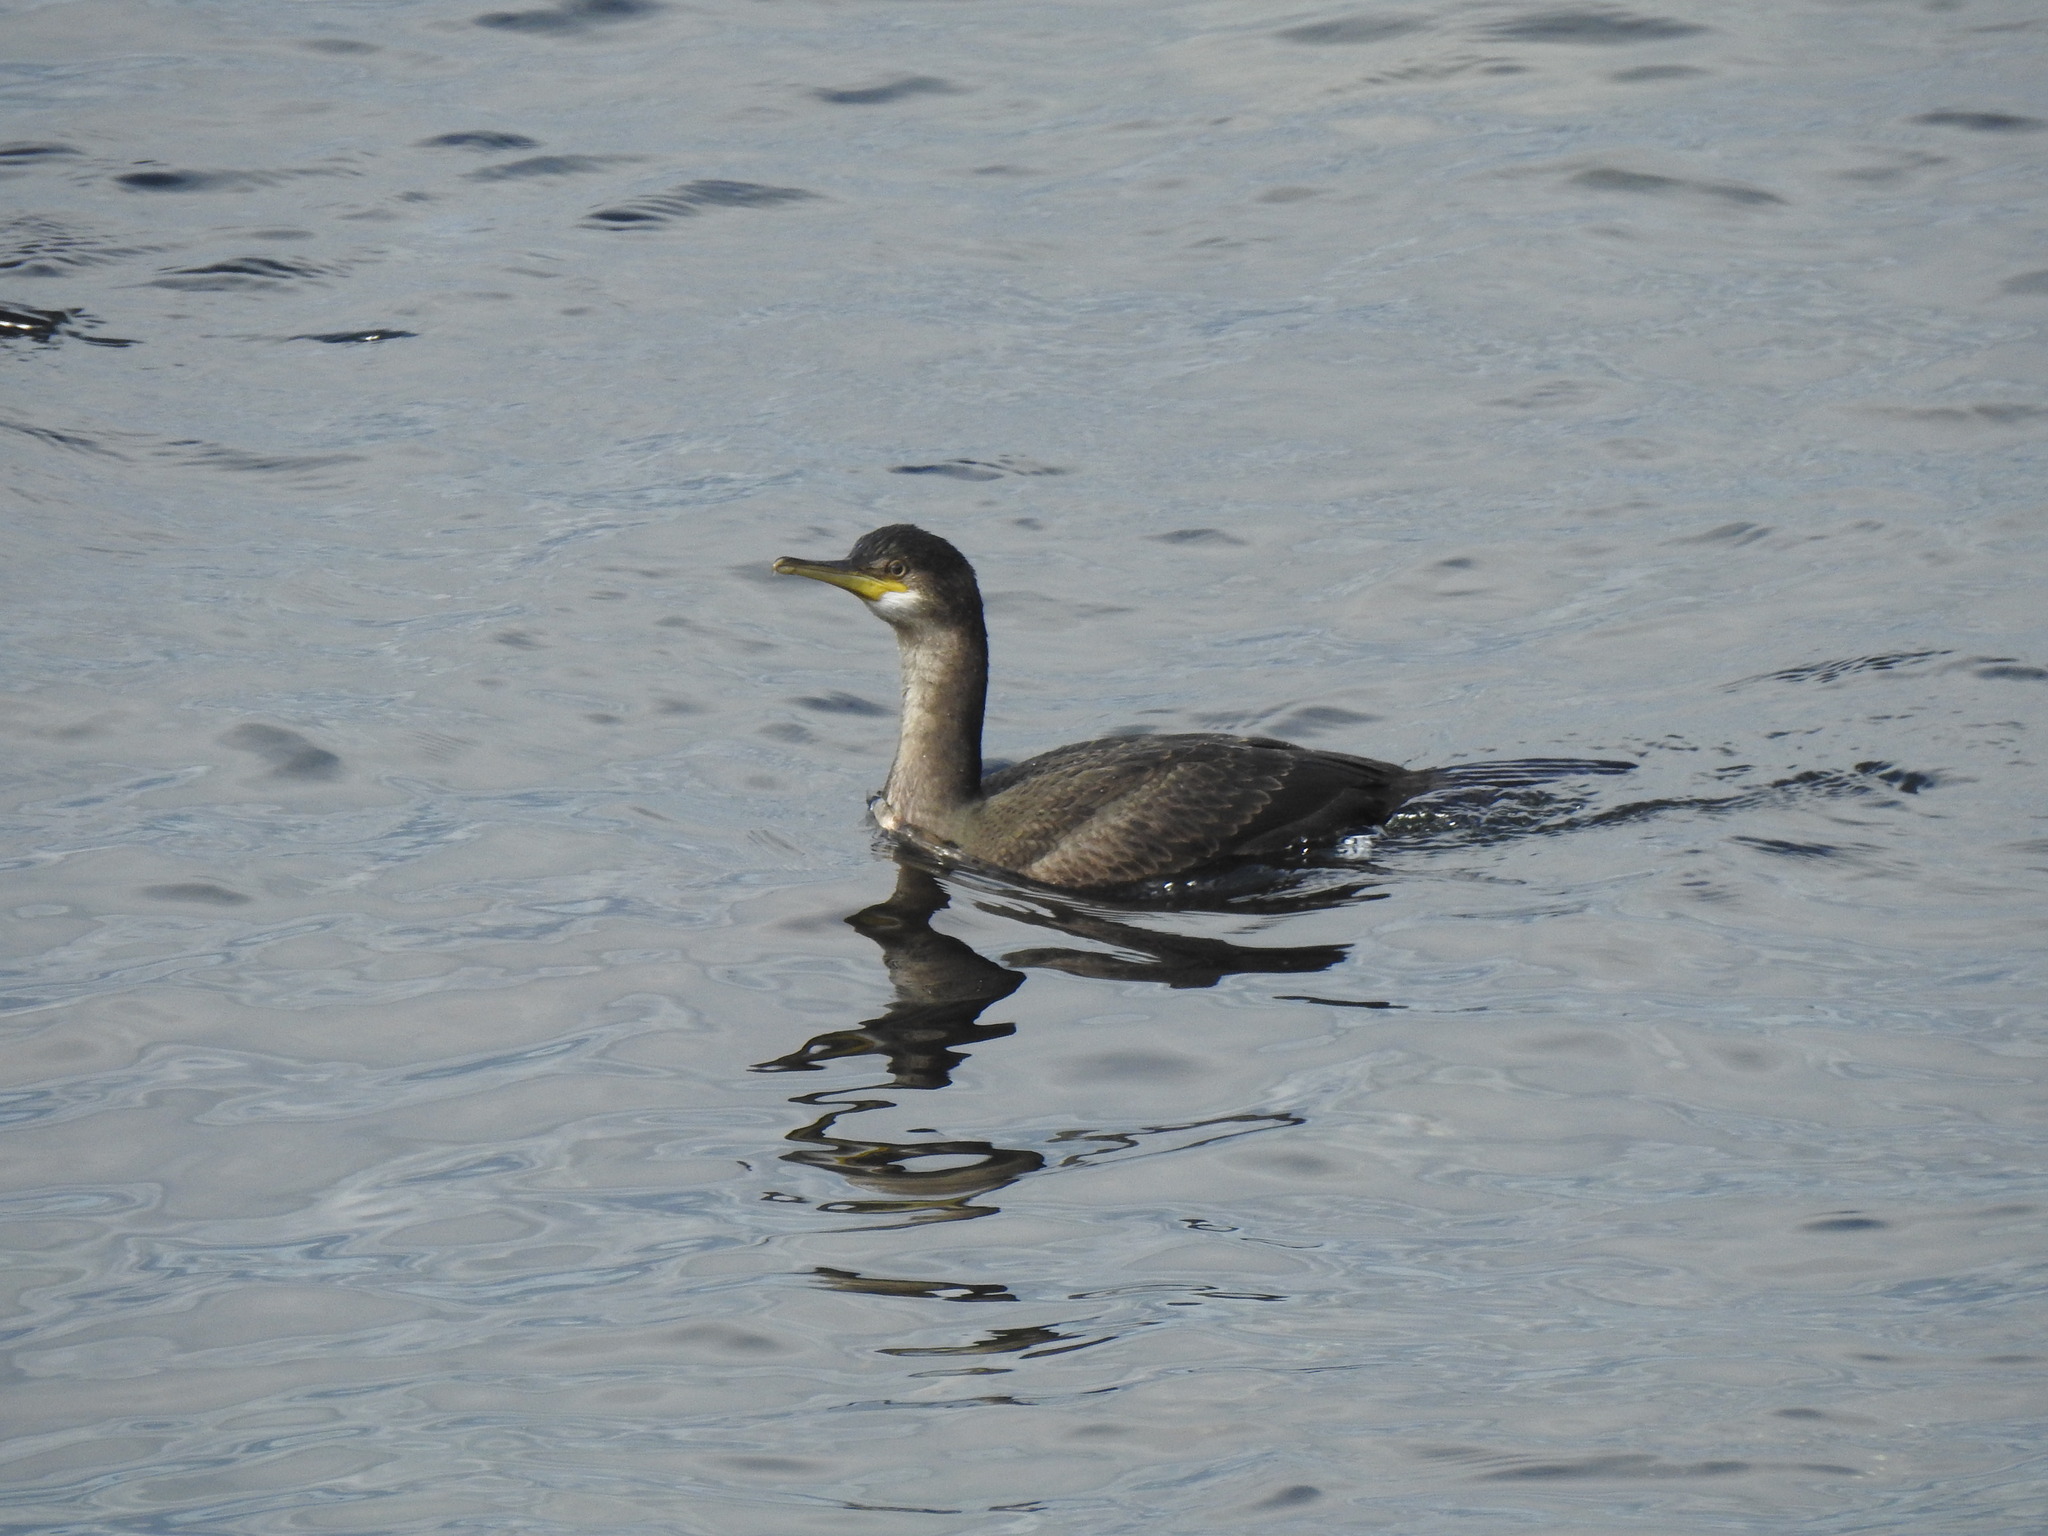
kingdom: Animalia
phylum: Chordata
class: Aves
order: Suliformes
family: Phalacrocoracidae
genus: Phalacrocorax
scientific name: Phalacrocorax aristotelis
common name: European shag
